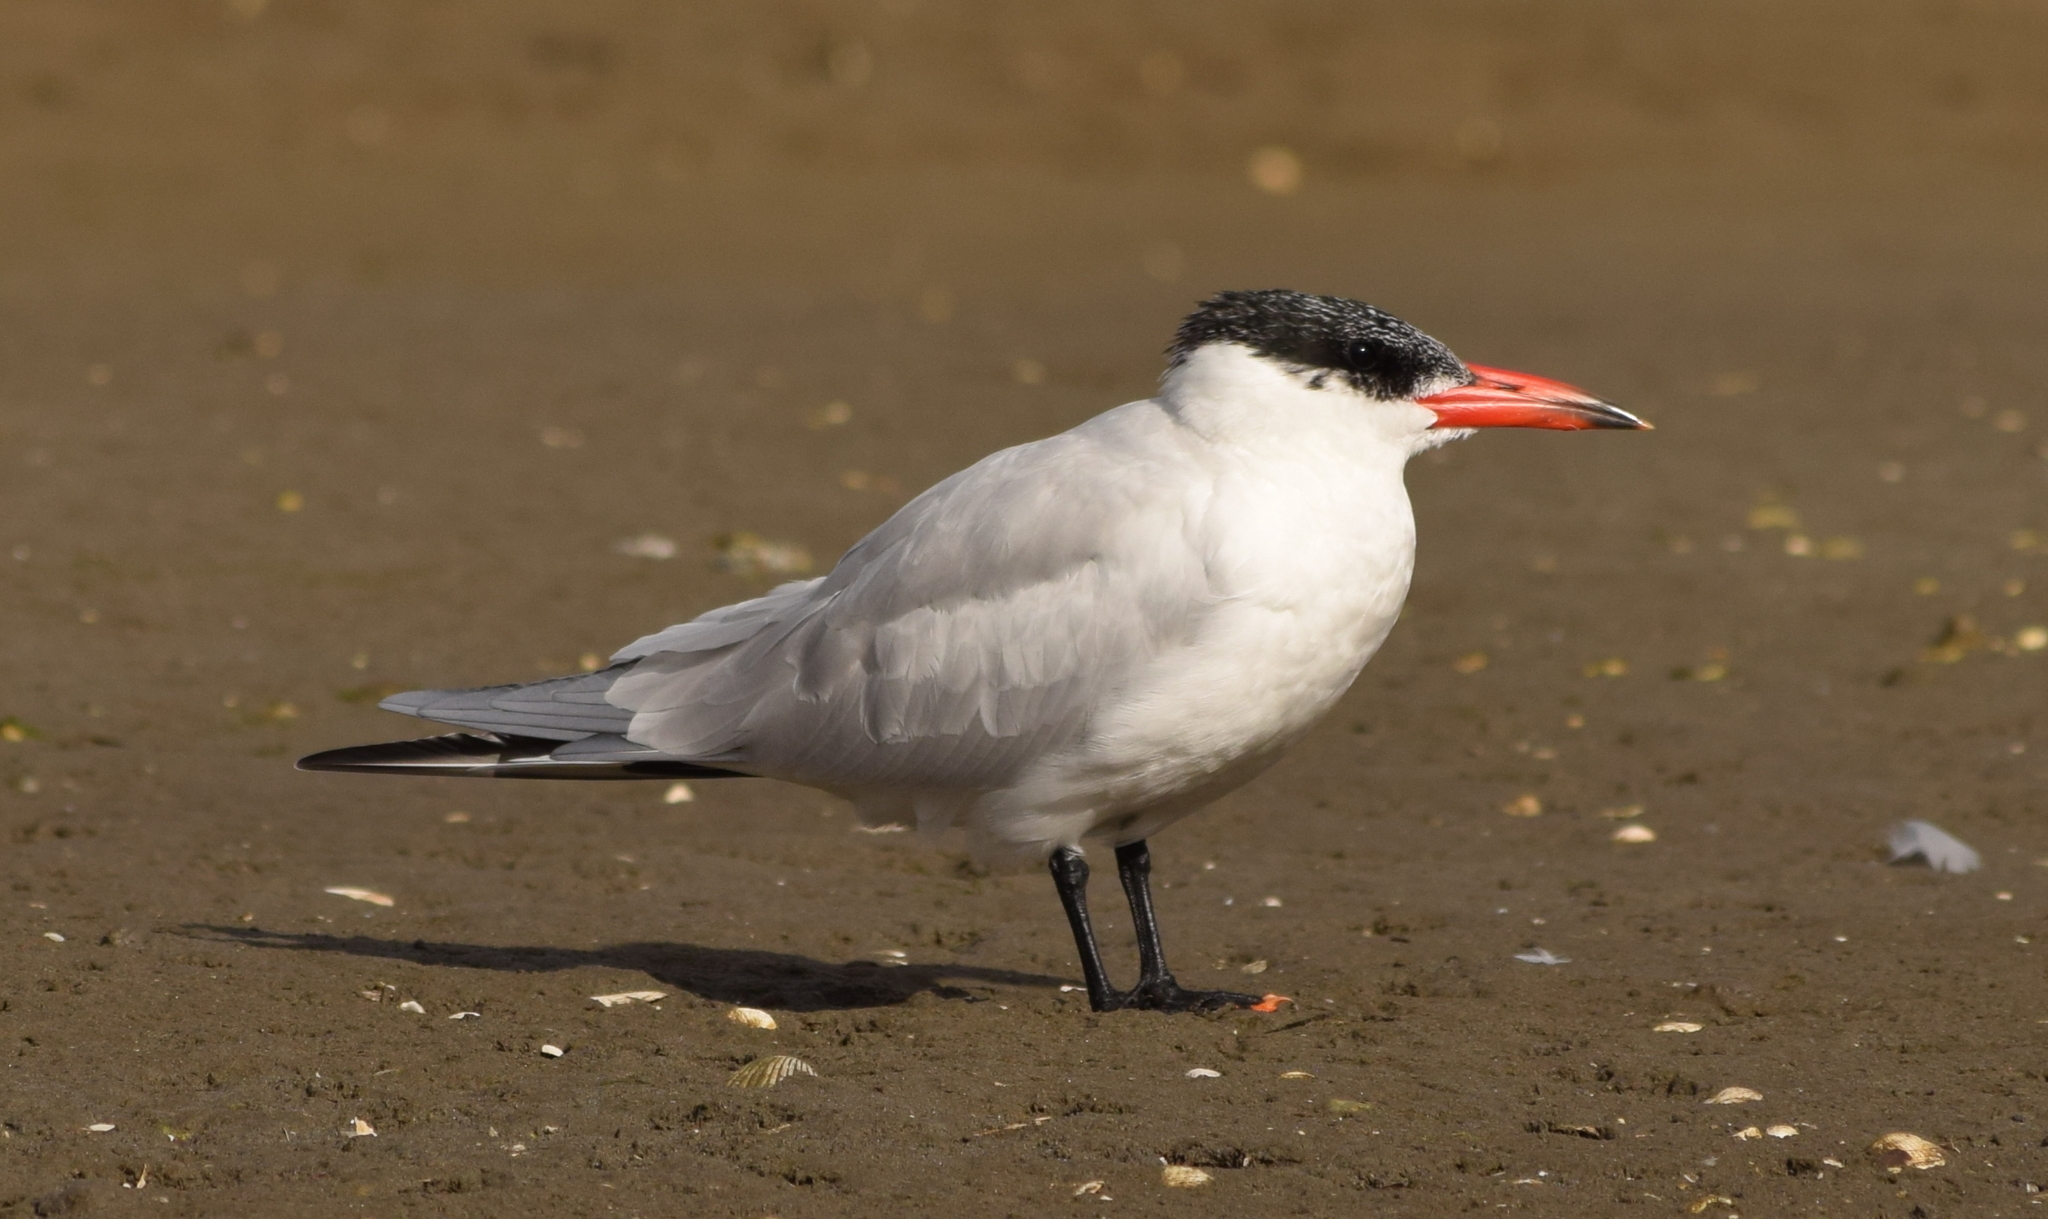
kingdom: Animalia
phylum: Chordata
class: Aves
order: Charadriiformes
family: Laridae
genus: Hydroprogne
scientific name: Hydroprogne caspia
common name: Caspian tern
